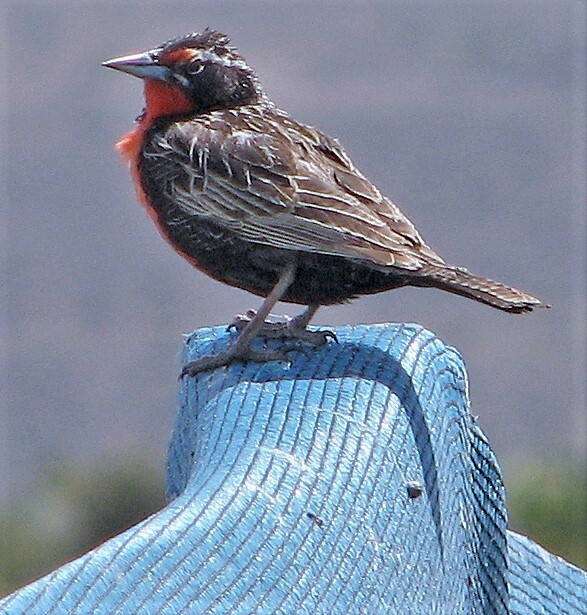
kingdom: Animalia
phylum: Chordata
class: Aves
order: Passeriformes
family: Icteridae
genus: Sturnella
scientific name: Sturnella loyca
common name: Long-tailed meadowlark
